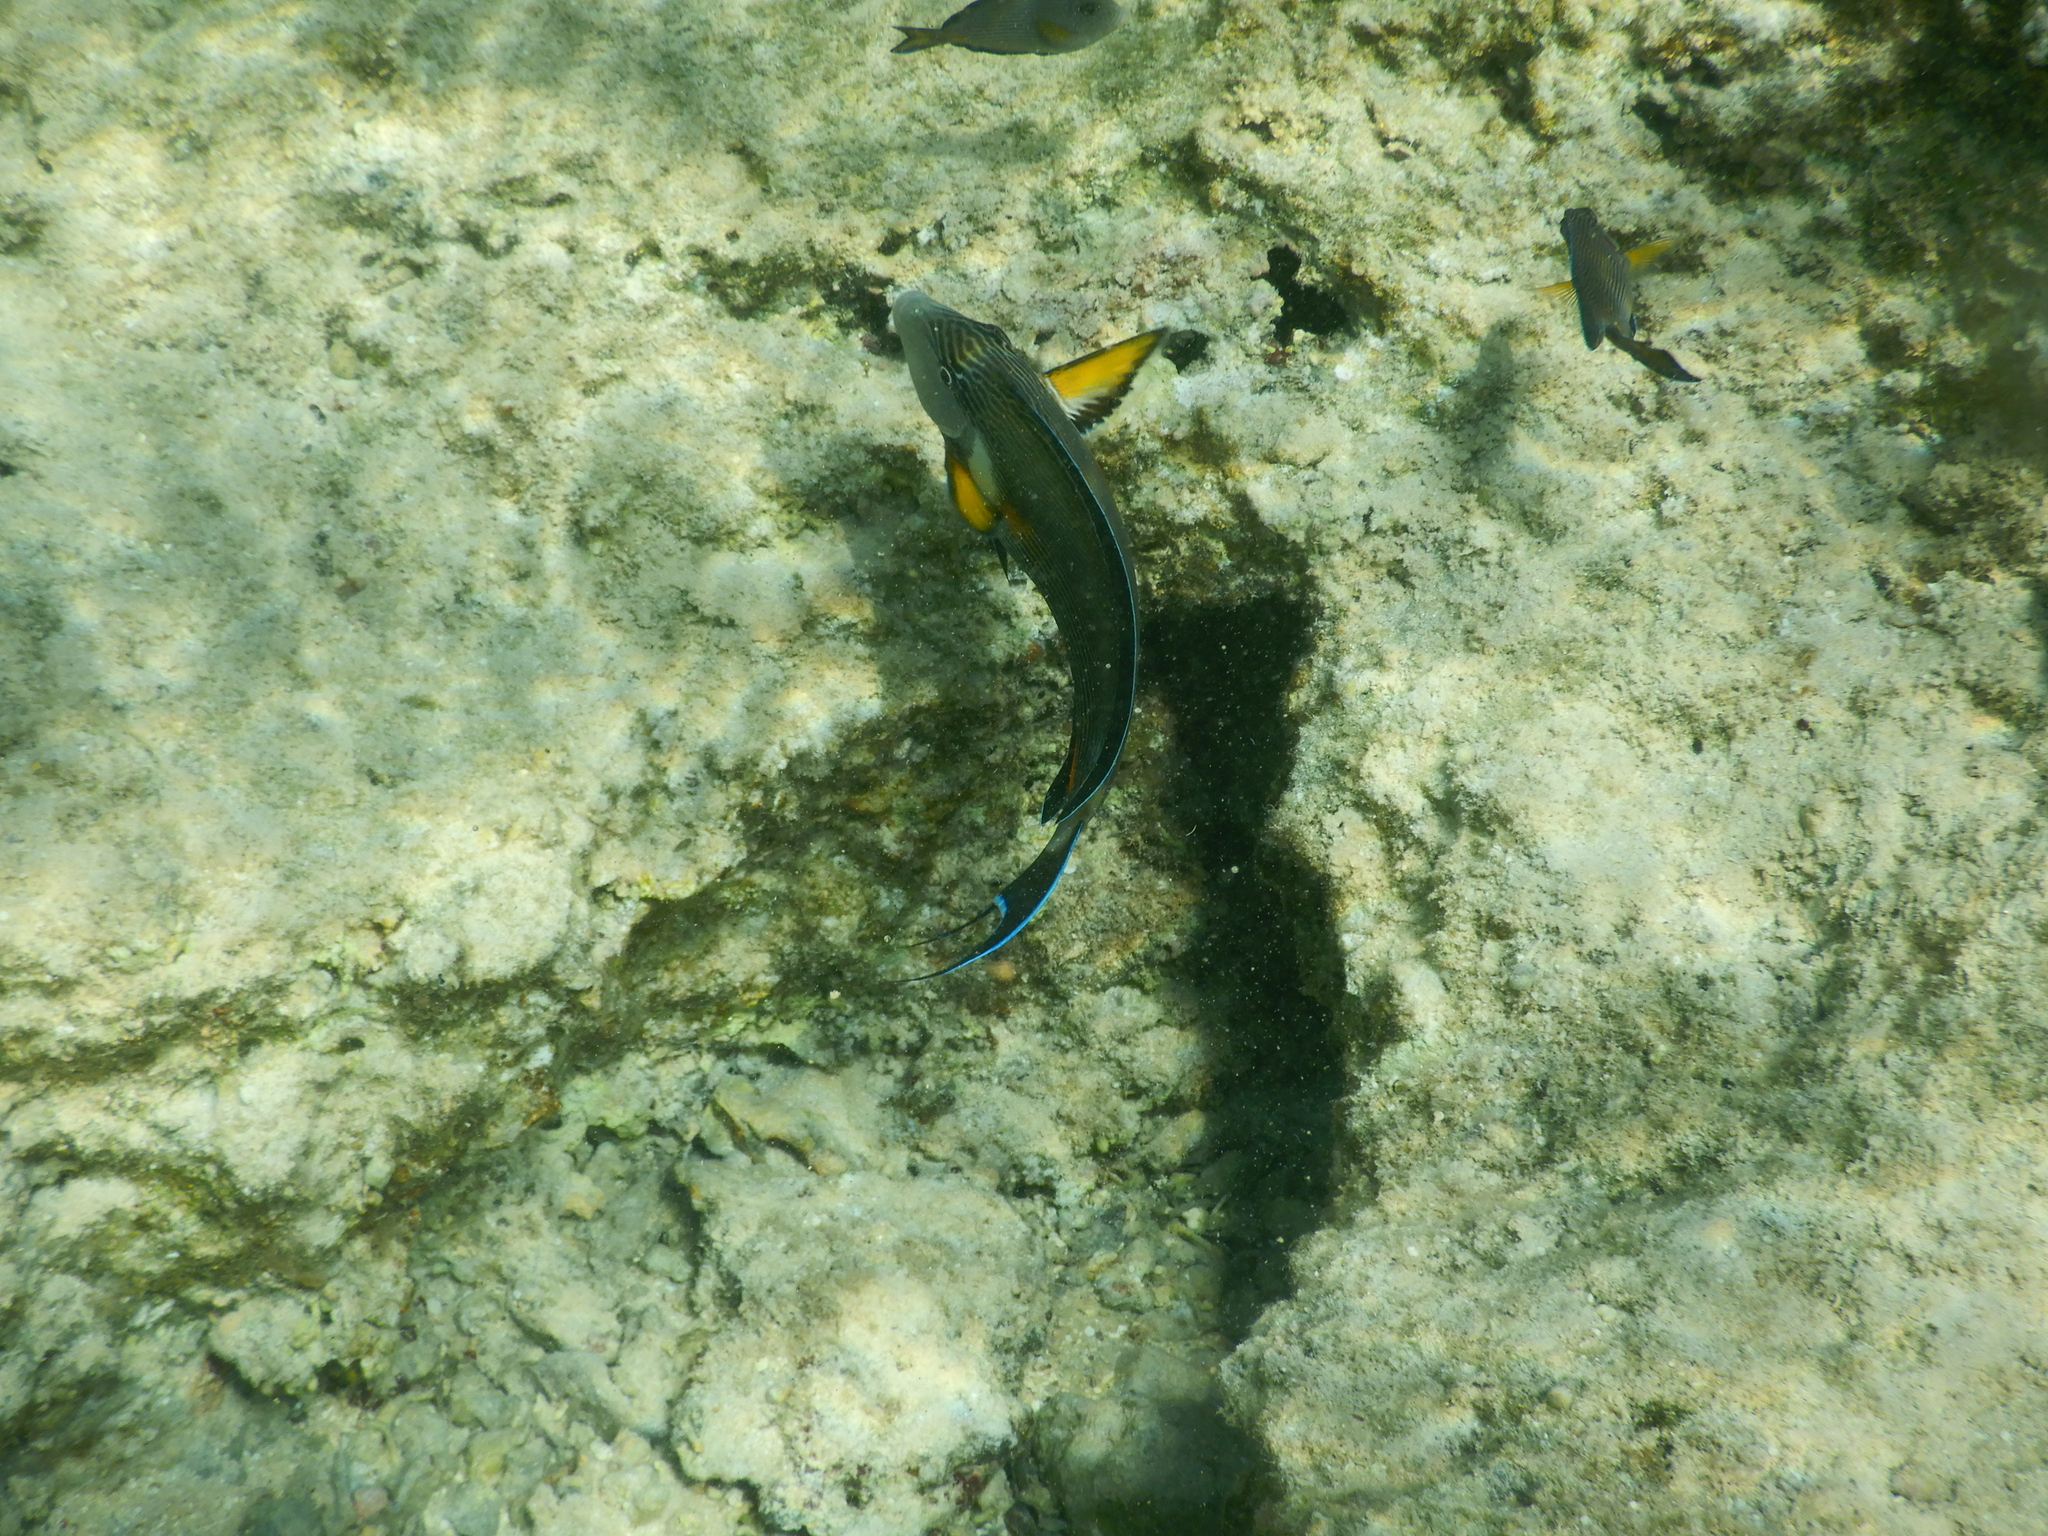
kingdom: Animalia
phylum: Chordata
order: Perciformes
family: Acanthuridae
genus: Acanthurus
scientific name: Acanthurus sohal
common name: Red sea surgeonfish
